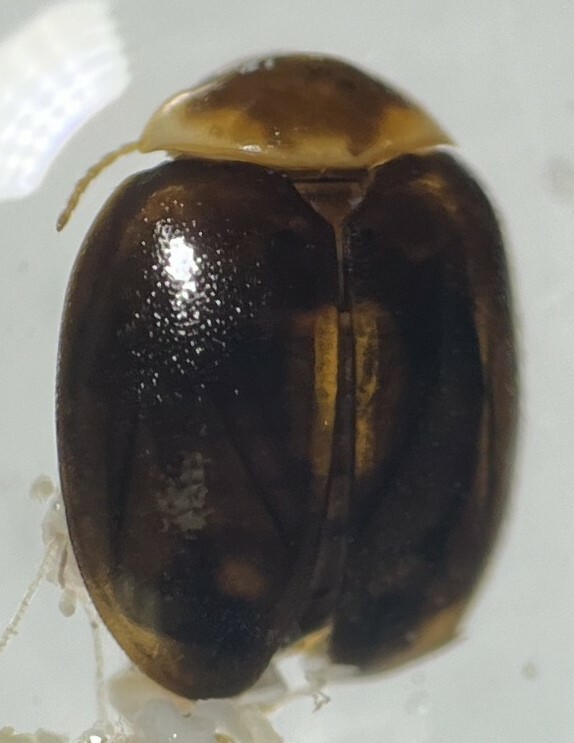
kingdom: Animalia
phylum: Arthropoda
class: Insecta
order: Coleoptera
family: Scirtidae
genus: Scirtes
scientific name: Scirtes orbiculatus
